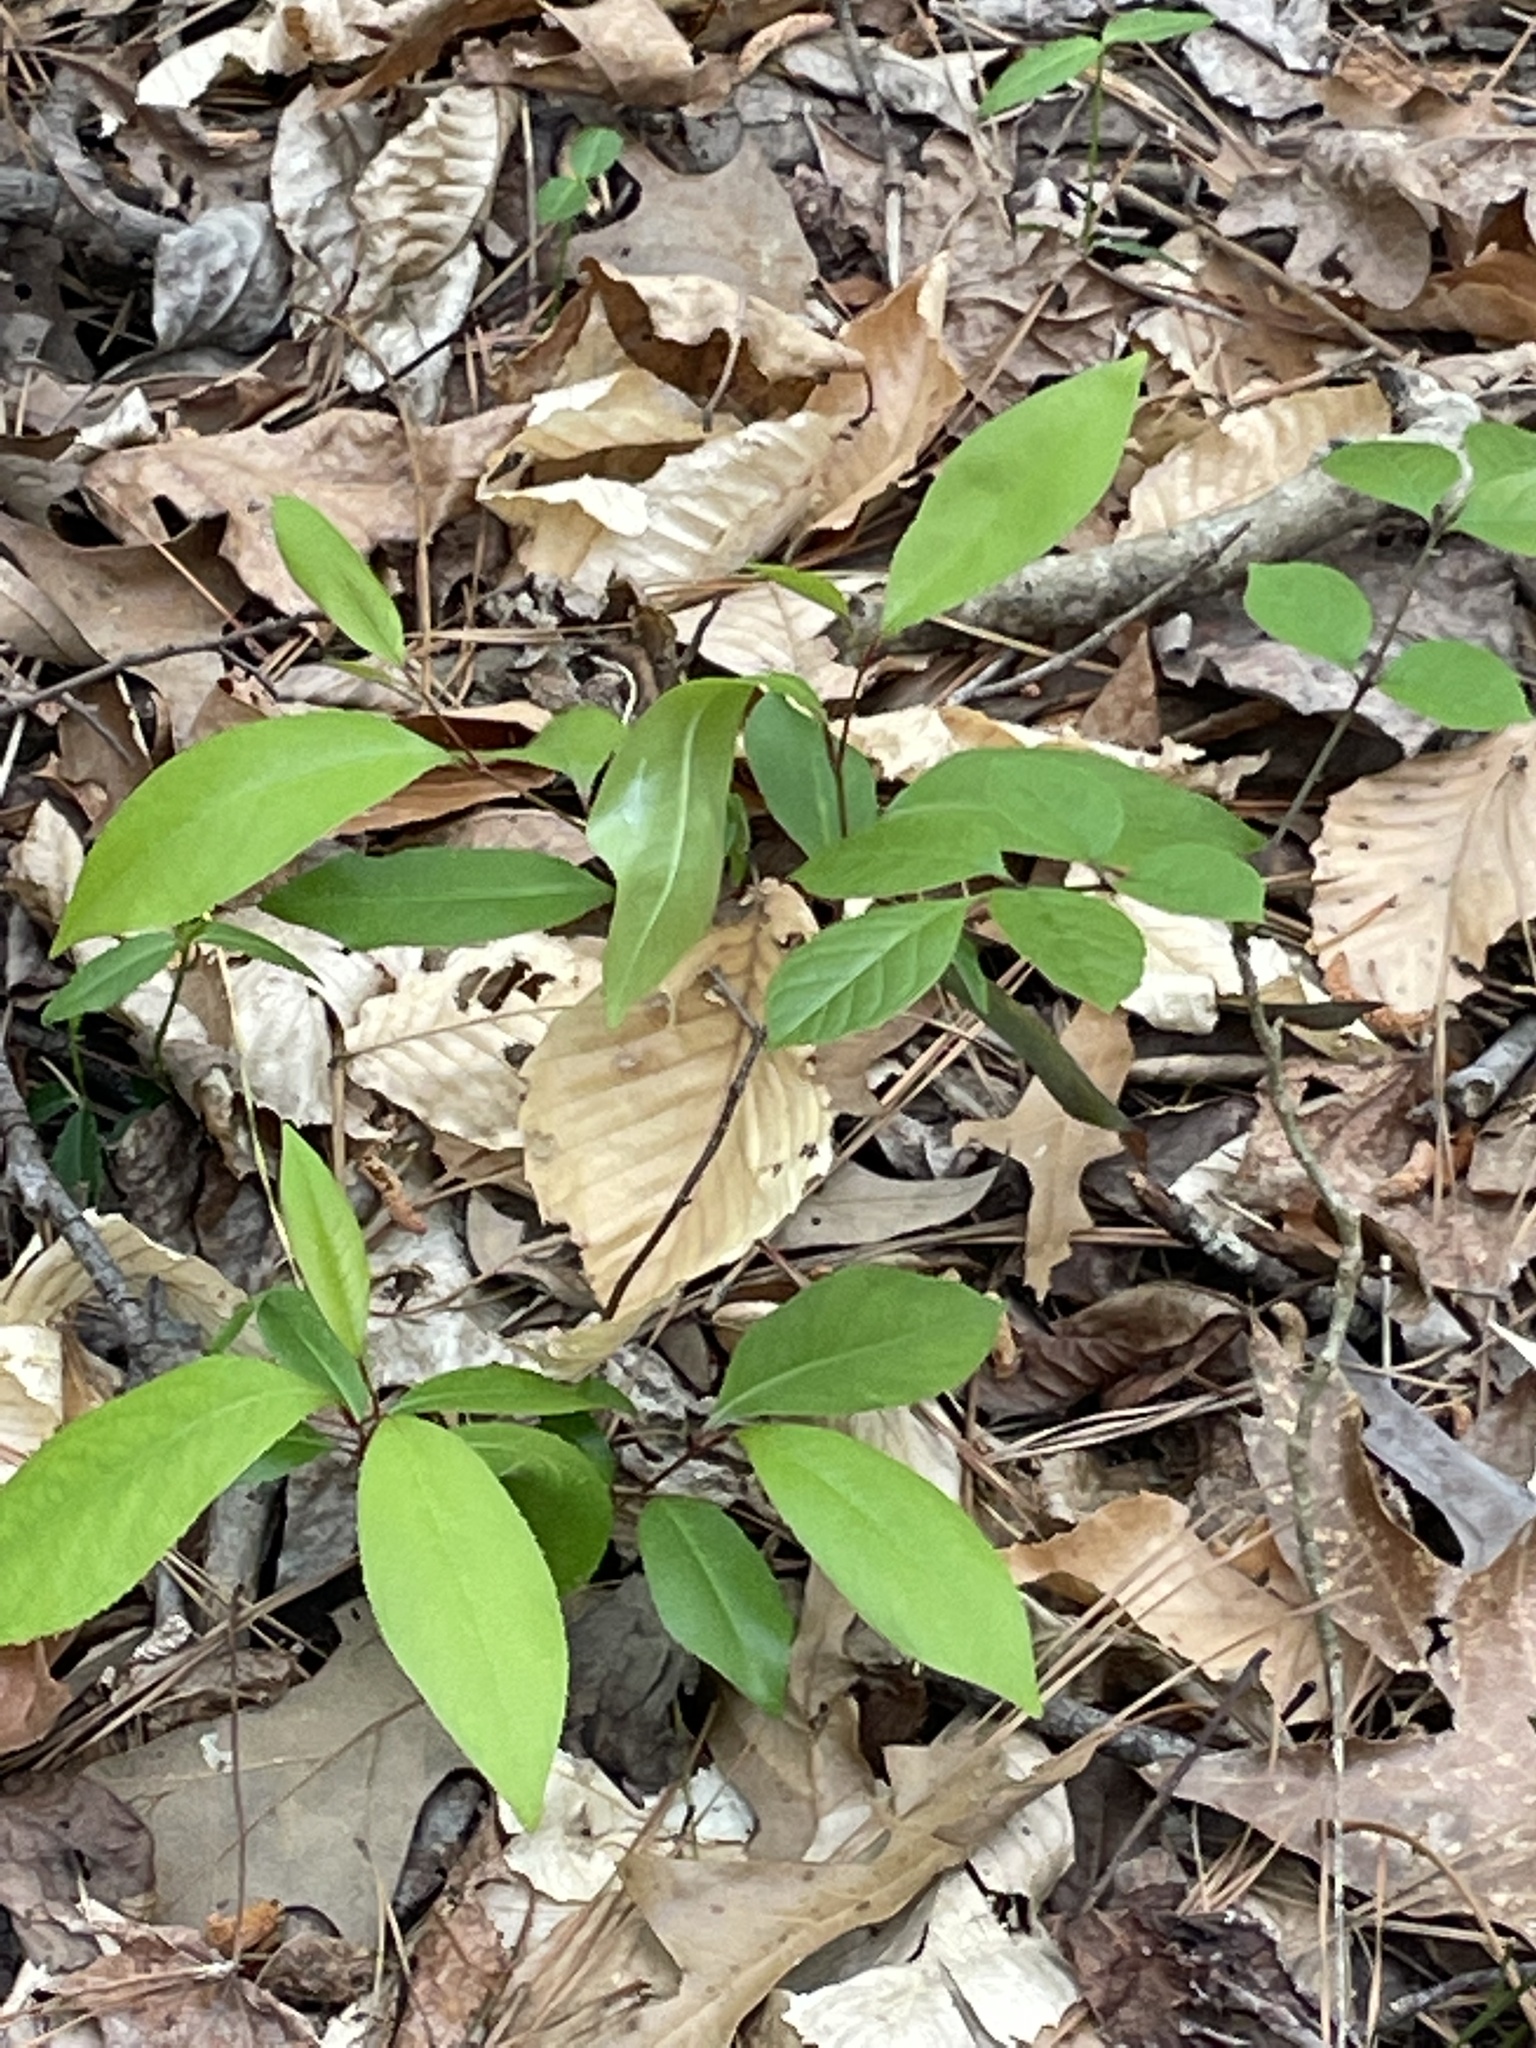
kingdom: Plantae
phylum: Tracheophyta
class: Magnoliopsida
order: Rosales
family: Rosaceae
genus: Prunus
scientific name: Prunus serotina
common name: Black cherry
